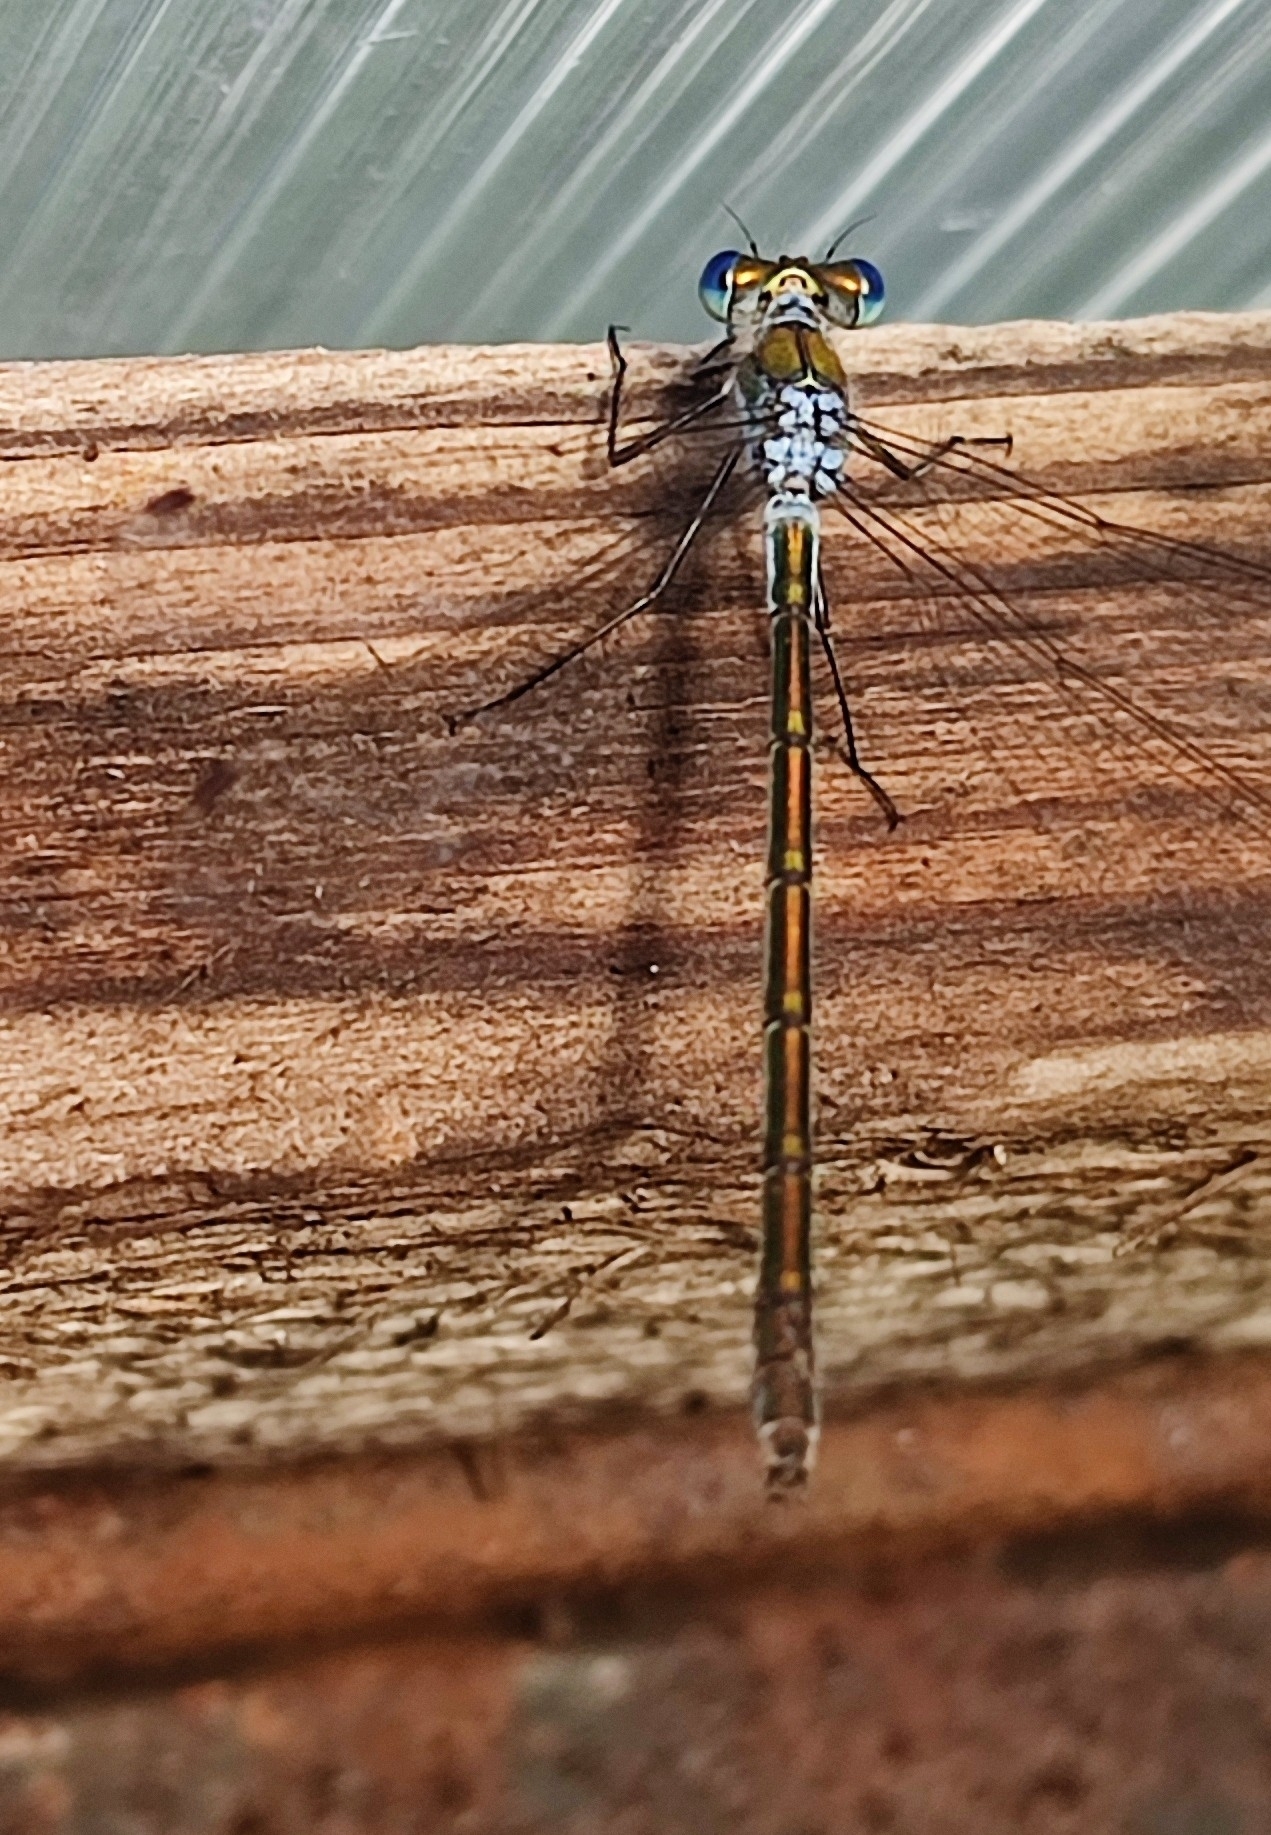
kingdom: Animalia
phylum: Arthropoda
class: Insecta
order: Odonata
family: Lestidae
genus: Lestes
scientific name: Lestes sponsa
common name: Common spreadwing
